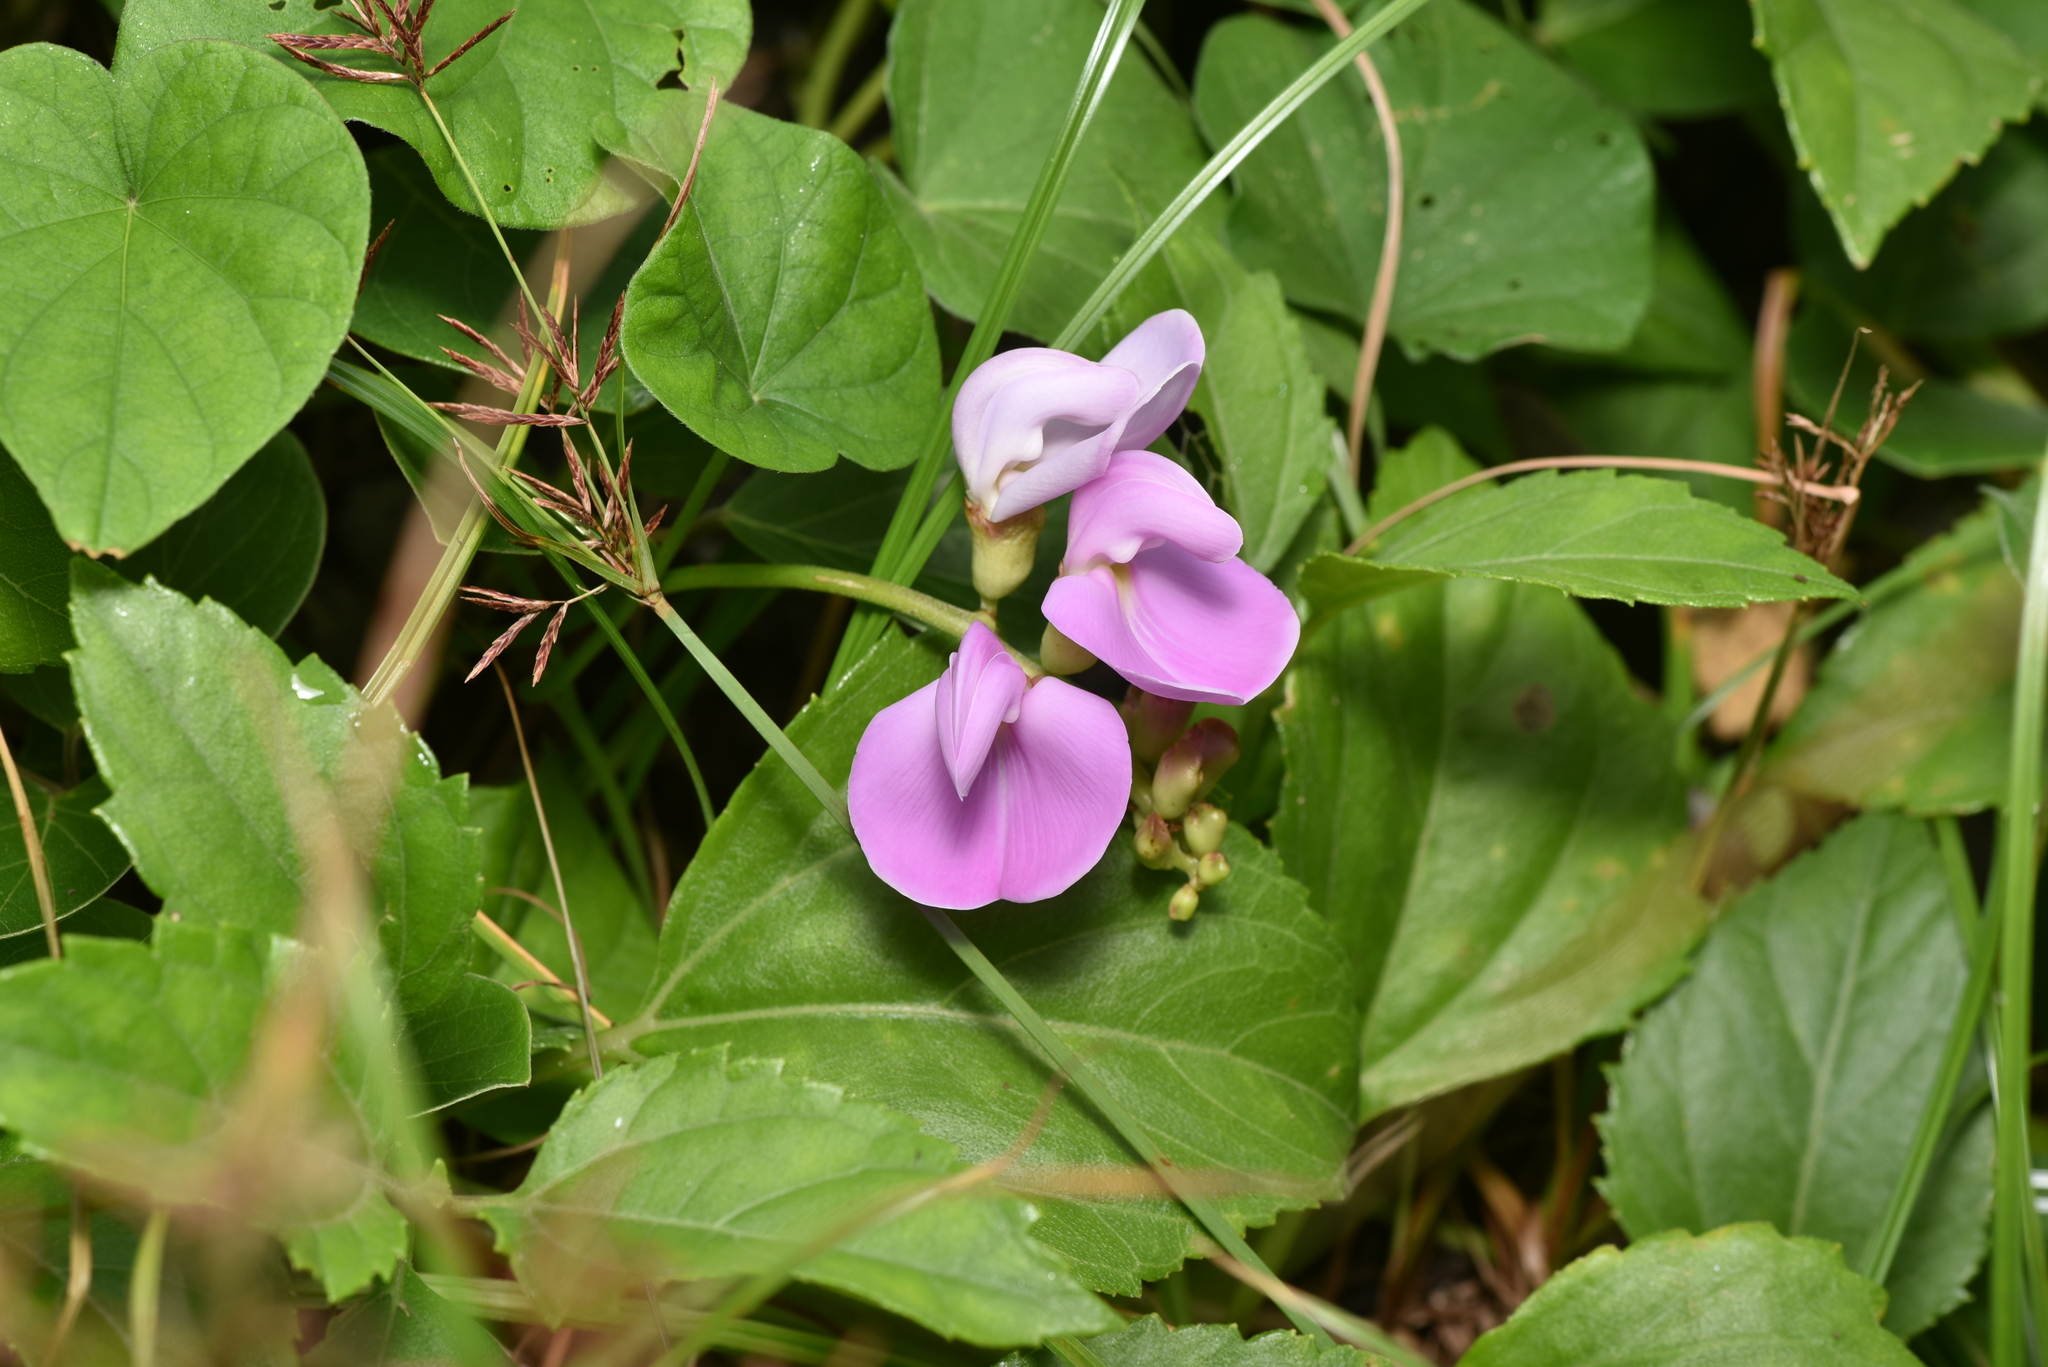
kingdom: Plantae
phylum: Tracheophyta
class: Magnoliopsida
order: Fabales
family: Fabaceae
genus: Canavalia
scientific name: Canavalia lineata
